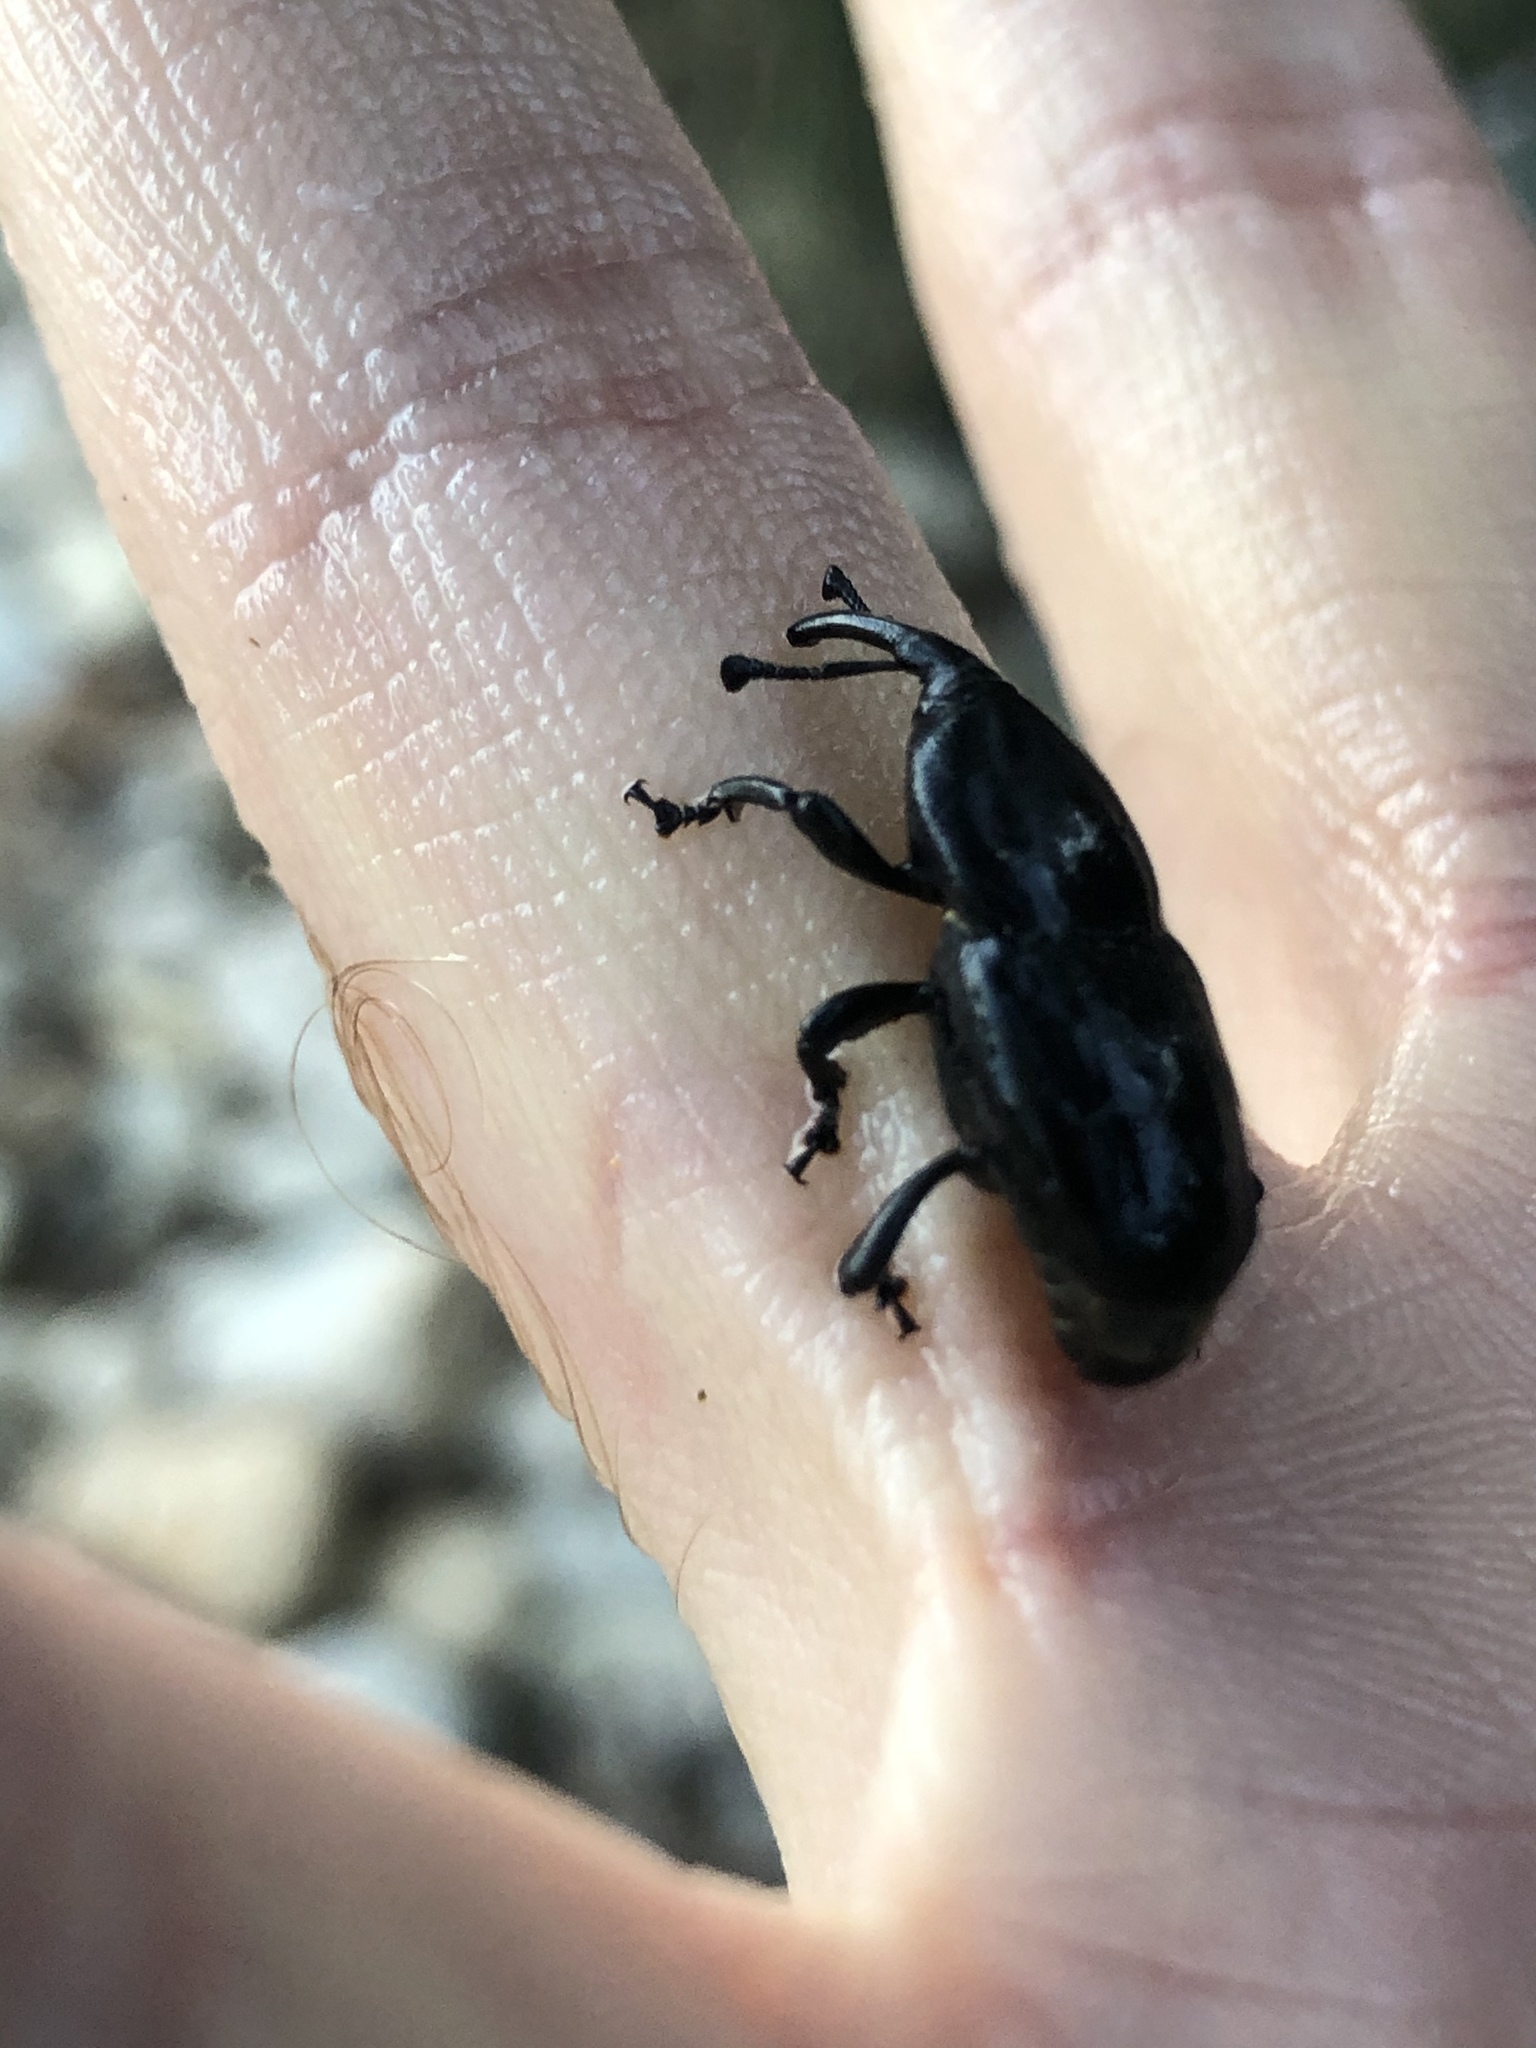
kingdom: Animalia
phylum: Arthropoda
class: Insecta
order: Coleoptera
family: Dryophthoridae
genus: Scyphophorus
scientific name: Scyphophorus acupunctatus
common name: Weevil
